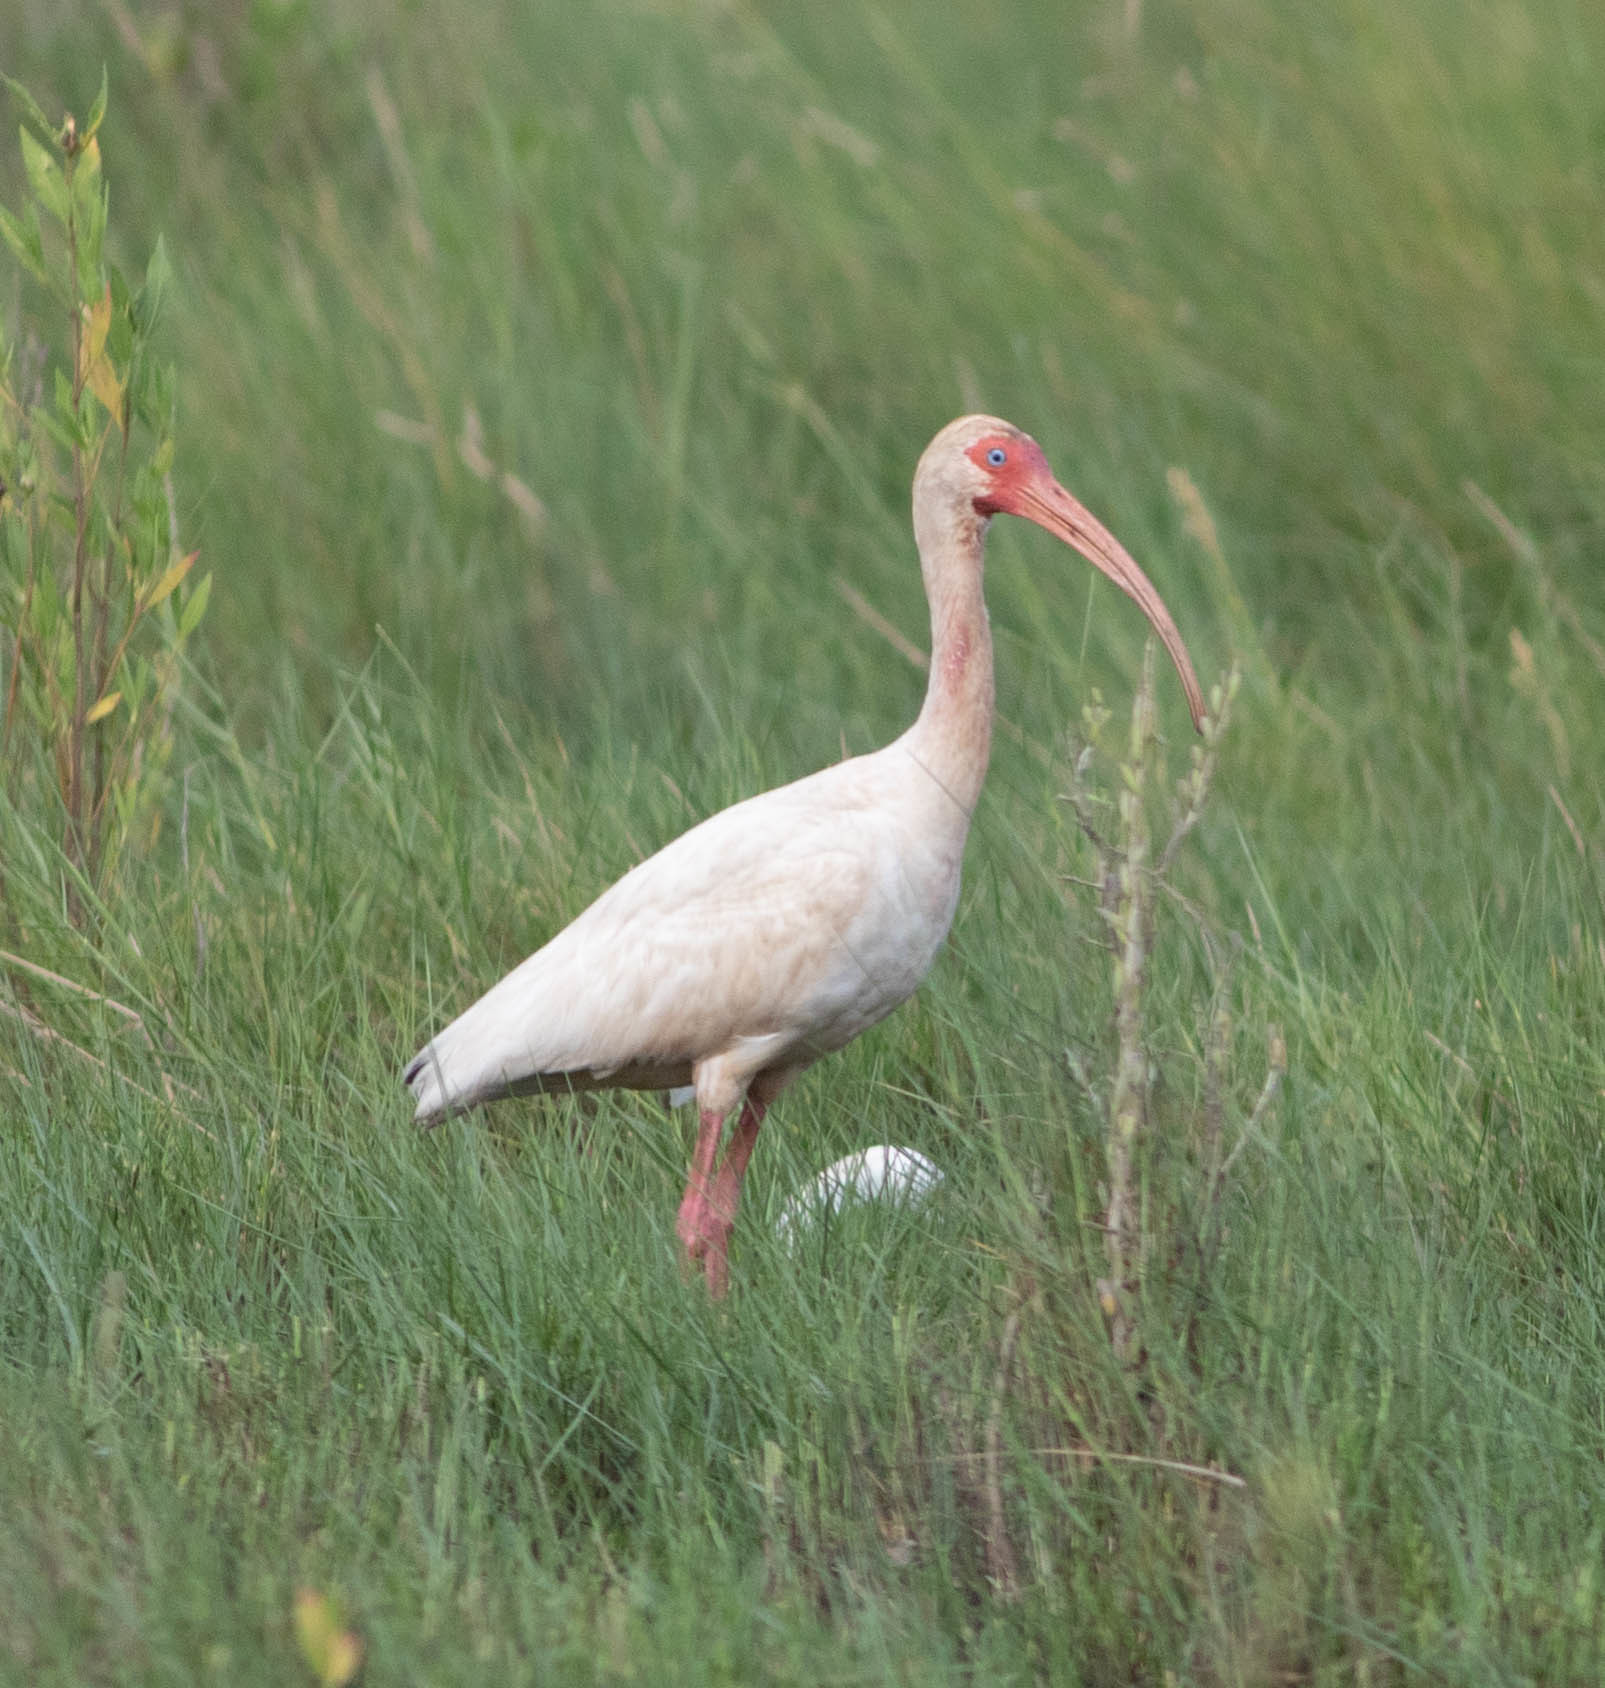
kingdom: Animalia
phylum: Chordata
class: Aves
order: Pelecaniformes
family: Threskiornithidae
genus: Eudocimus
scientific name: Eudocimus albus
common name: White ibis
